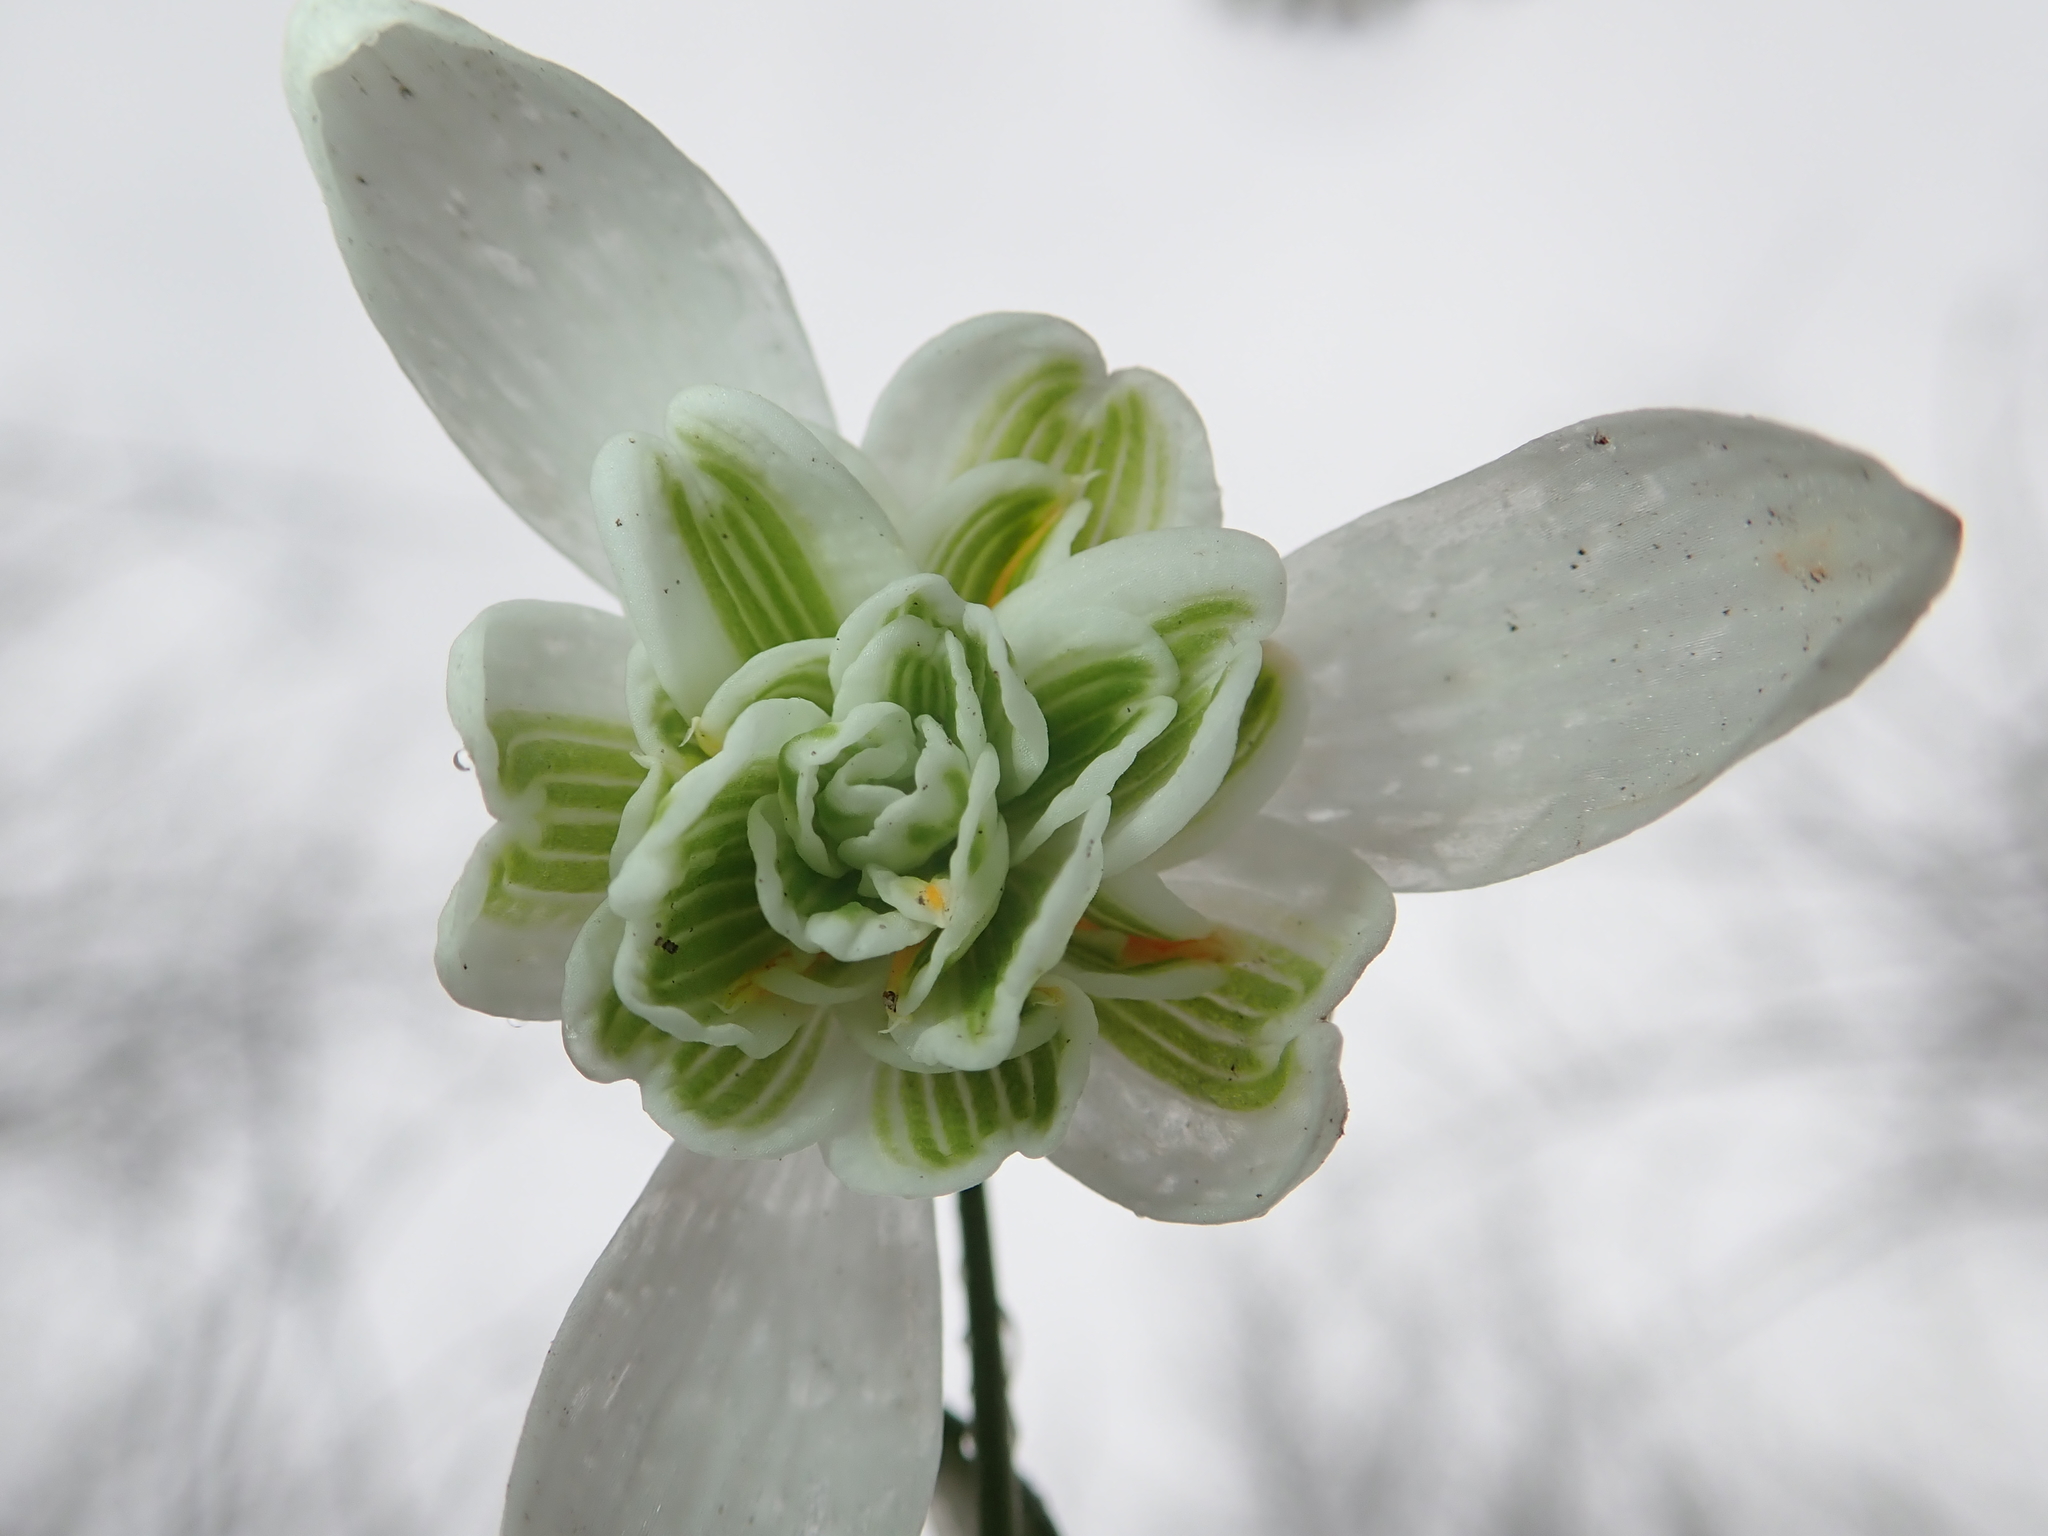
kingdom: Plantae
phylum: Tracheophyta
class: Liliopsida
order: Asparagales
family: Amaryllidaceae
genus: Galanthus
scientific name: Galanthus nivalis
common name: Snowdrop
